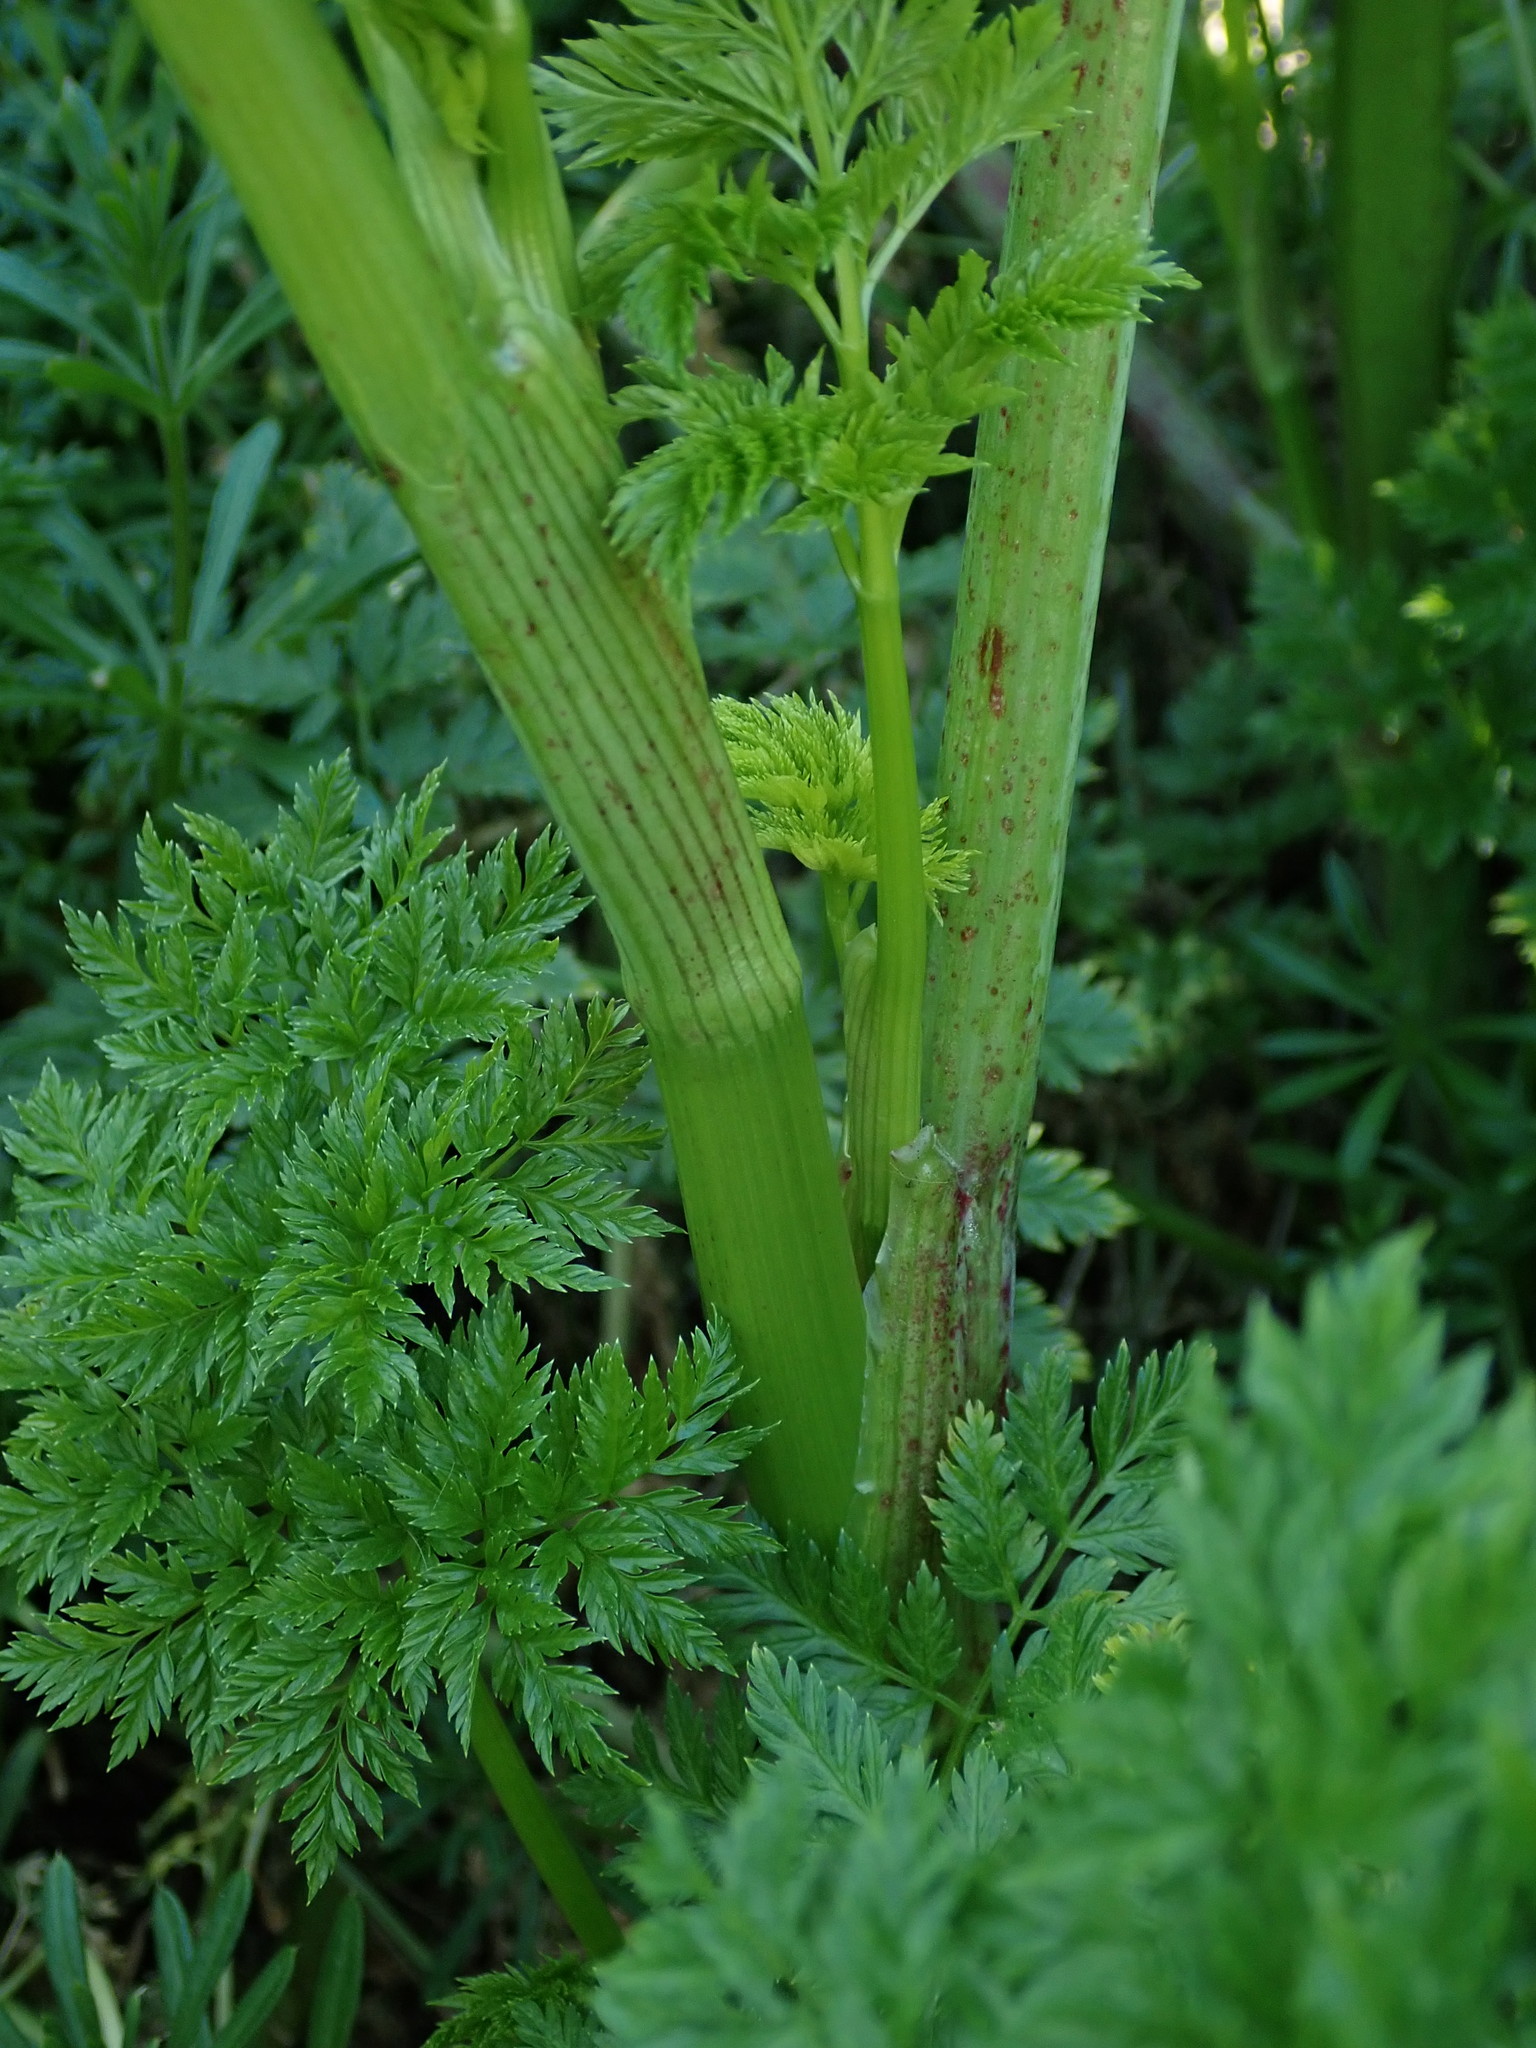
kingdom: Plantae
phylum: Tracheophyta
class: Magnoliopsida
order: Apiales
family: Apiaceae
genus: Conium
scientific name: Conium maculatum
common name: Hemlock
